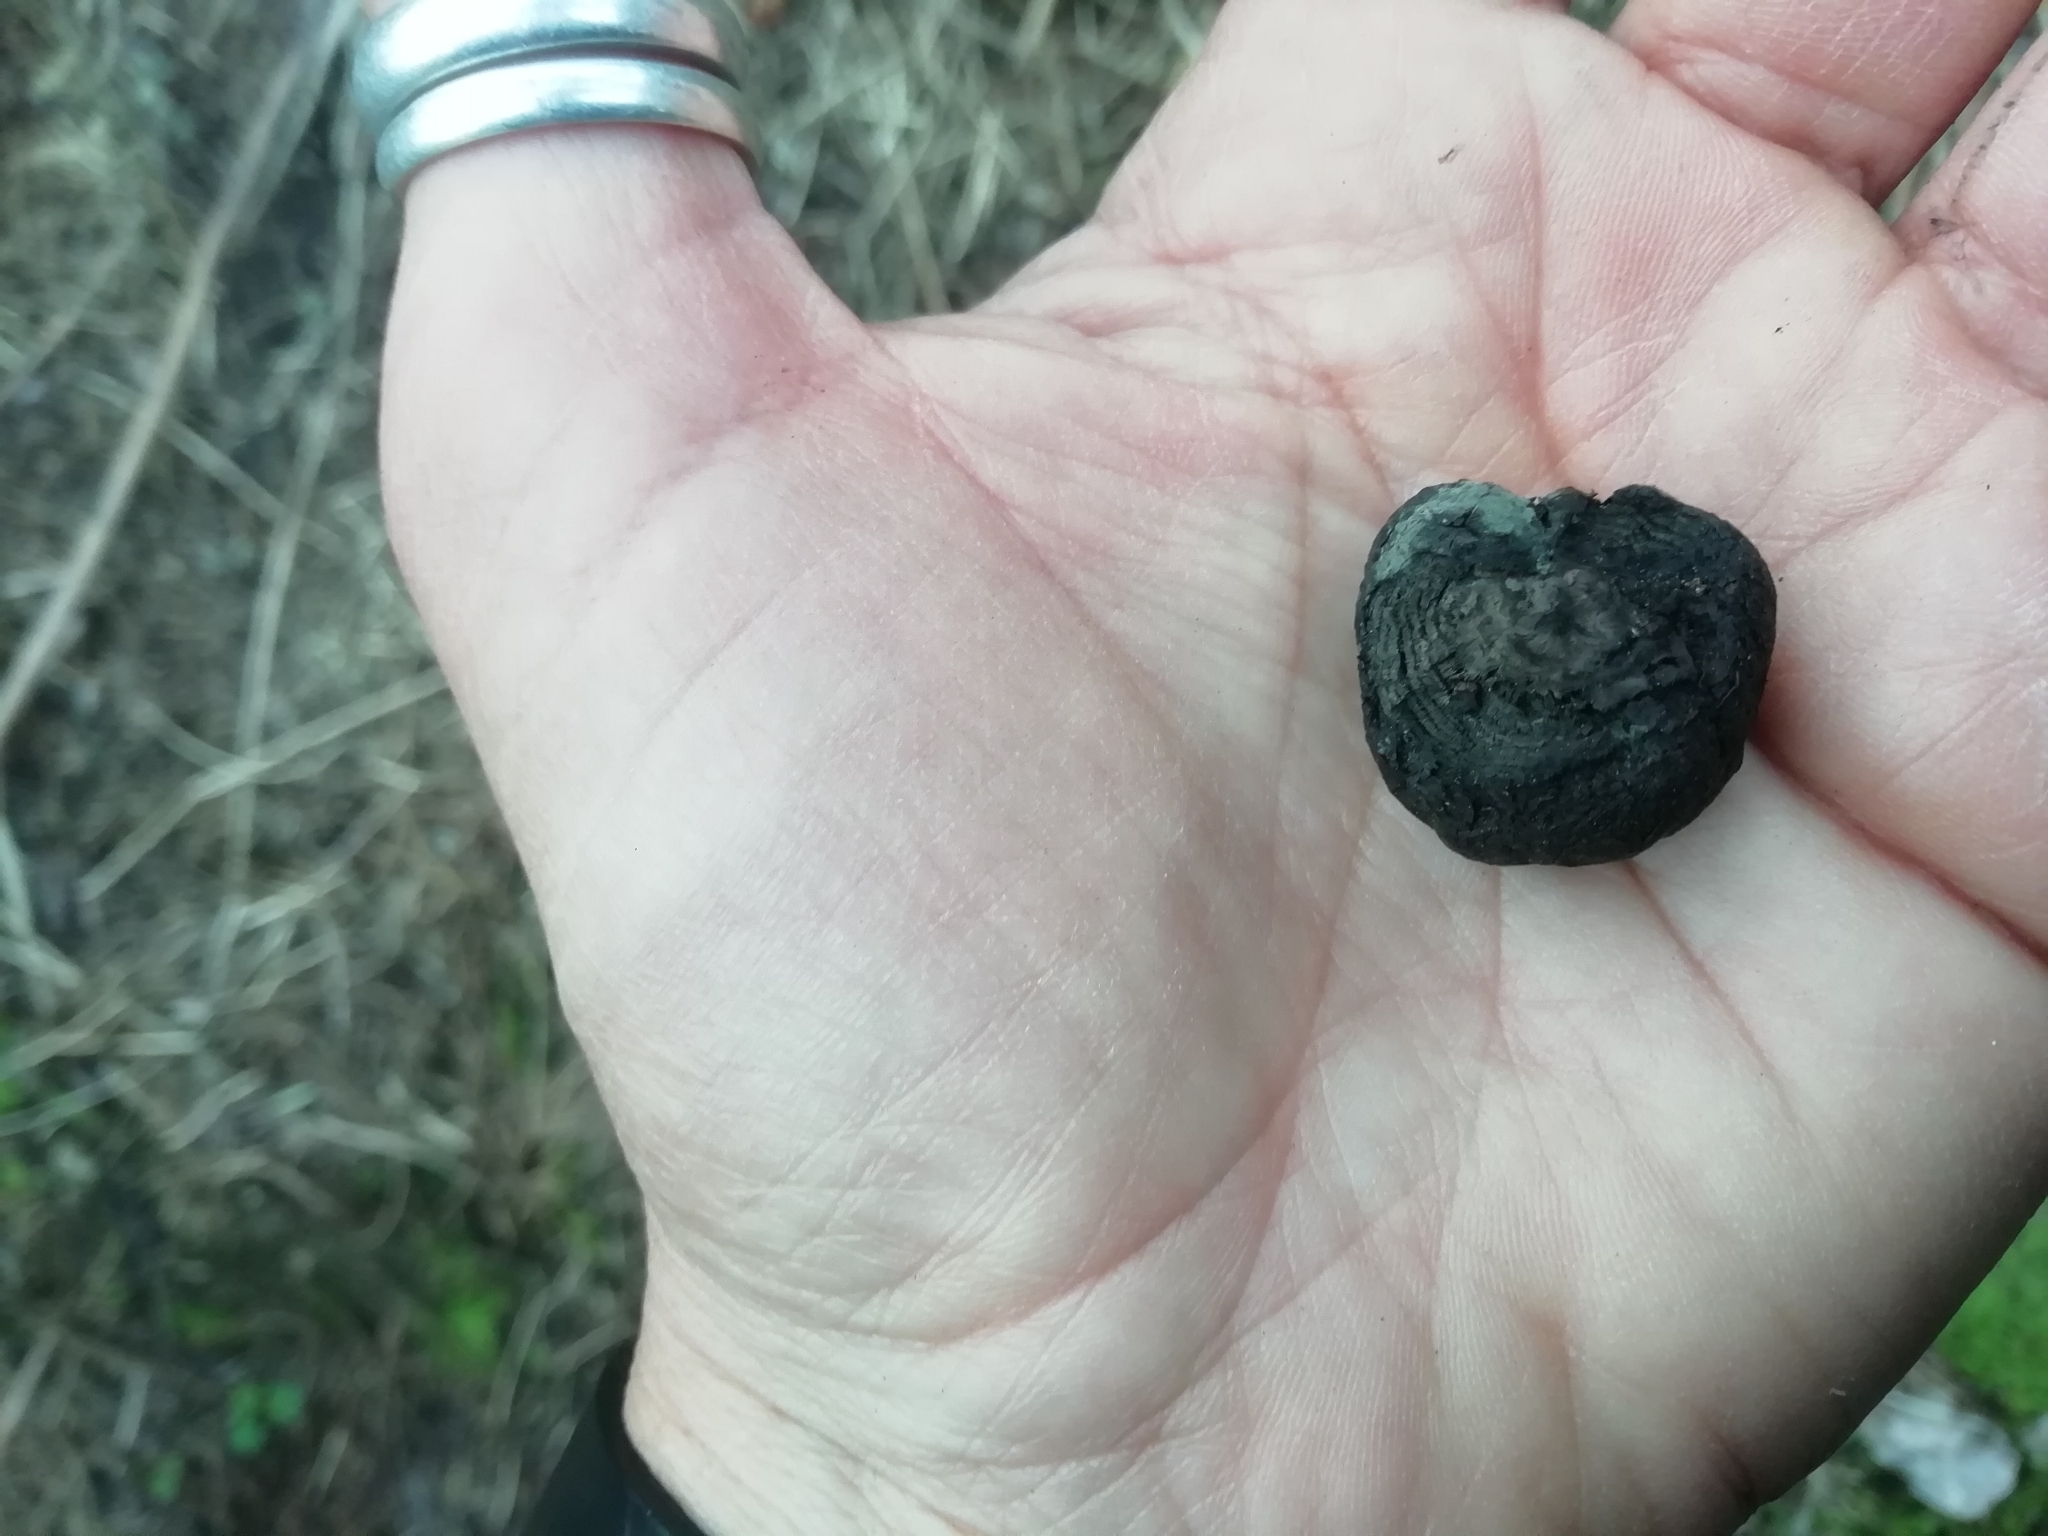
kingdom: Fungi
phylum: Ascomycota
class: Sordariomycetes
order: Xylariales
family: Hypoxylaceae
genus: Daldinia
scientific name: Daldinia concentrica
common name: Cramp balls
